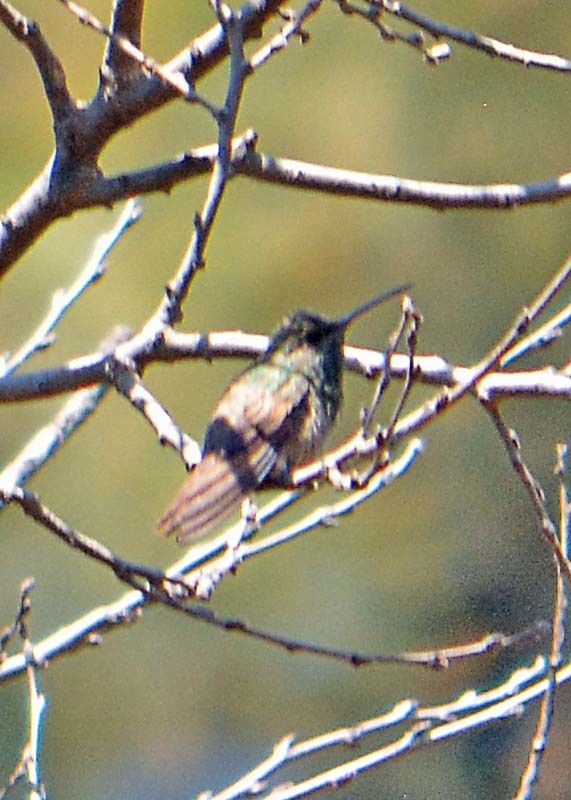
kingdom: Animalia
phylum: Chordata
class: Aves
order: Apodiformes
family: Trochilidae
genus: Saucerottia
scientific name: Saucerottia beryllina
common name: Berylline hummingbird
